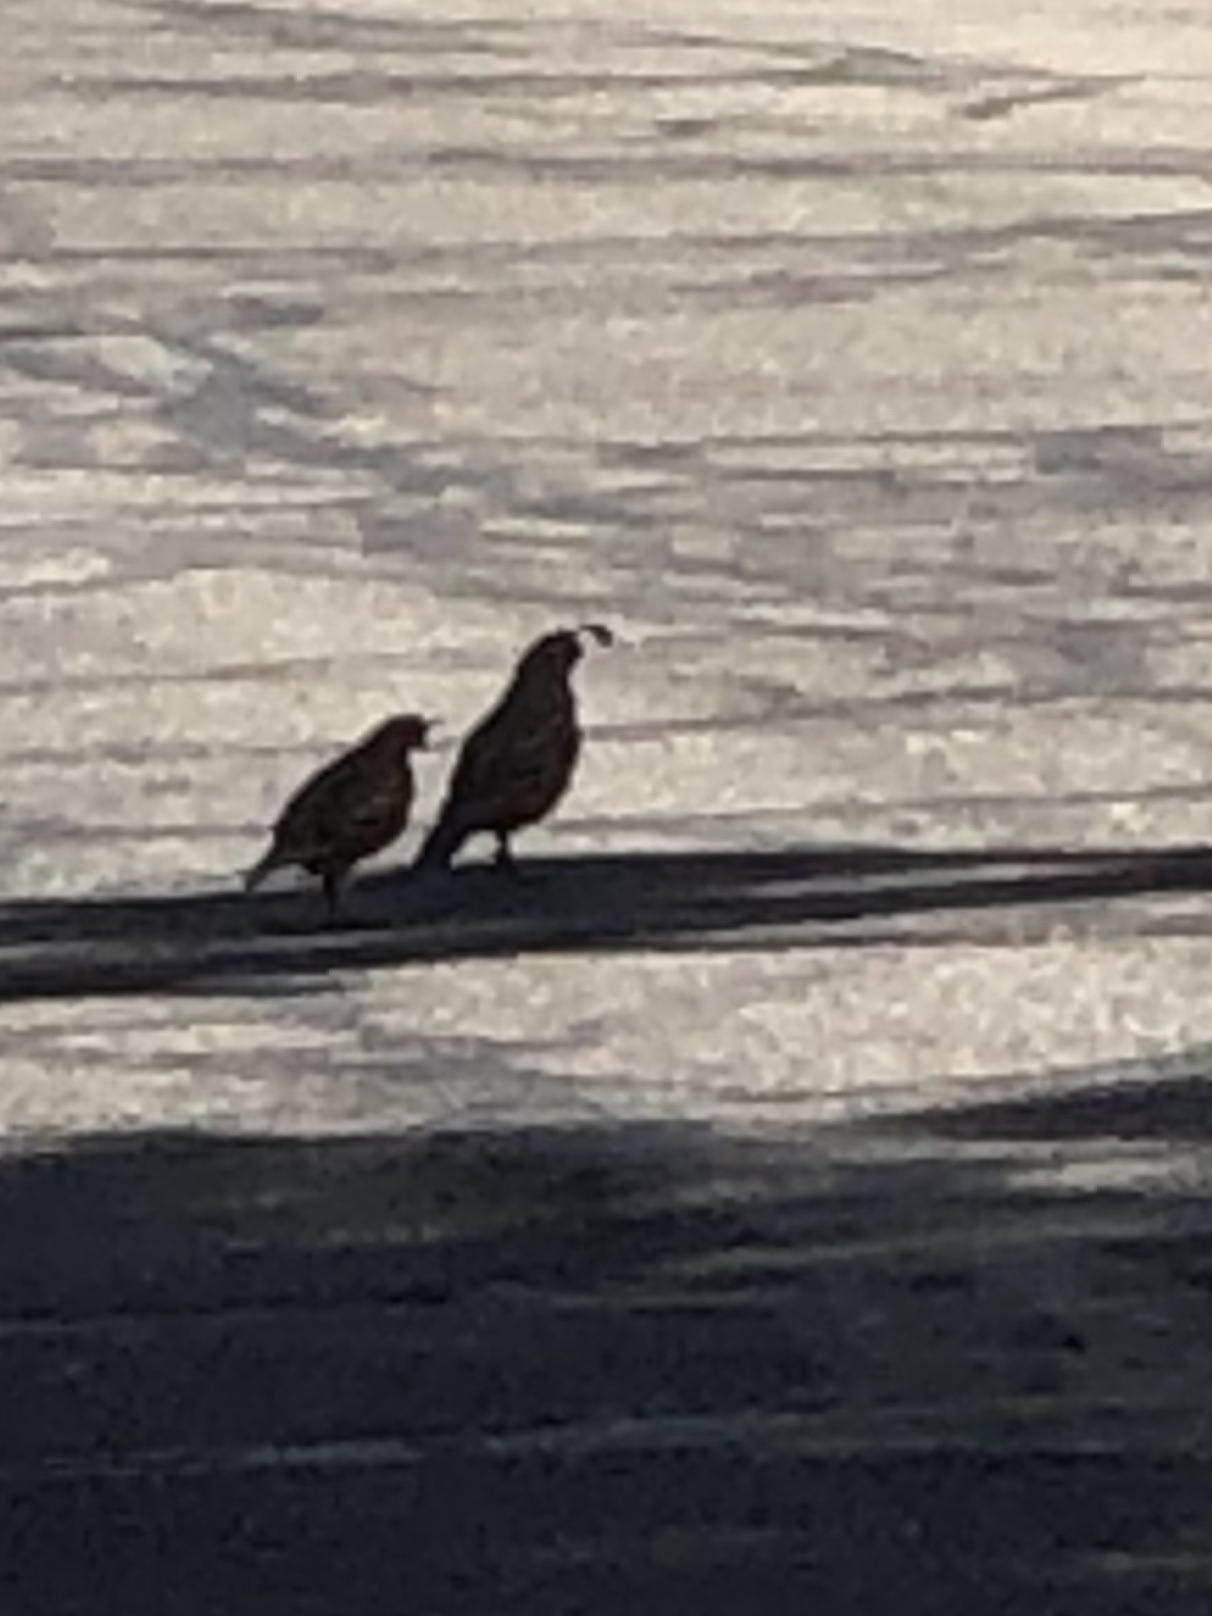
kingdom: Animalia
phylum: Chordata
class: Aves
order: Galliformes
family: Odontophoridae
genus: Callipepla
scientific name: Callipepla californica
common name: California quail
